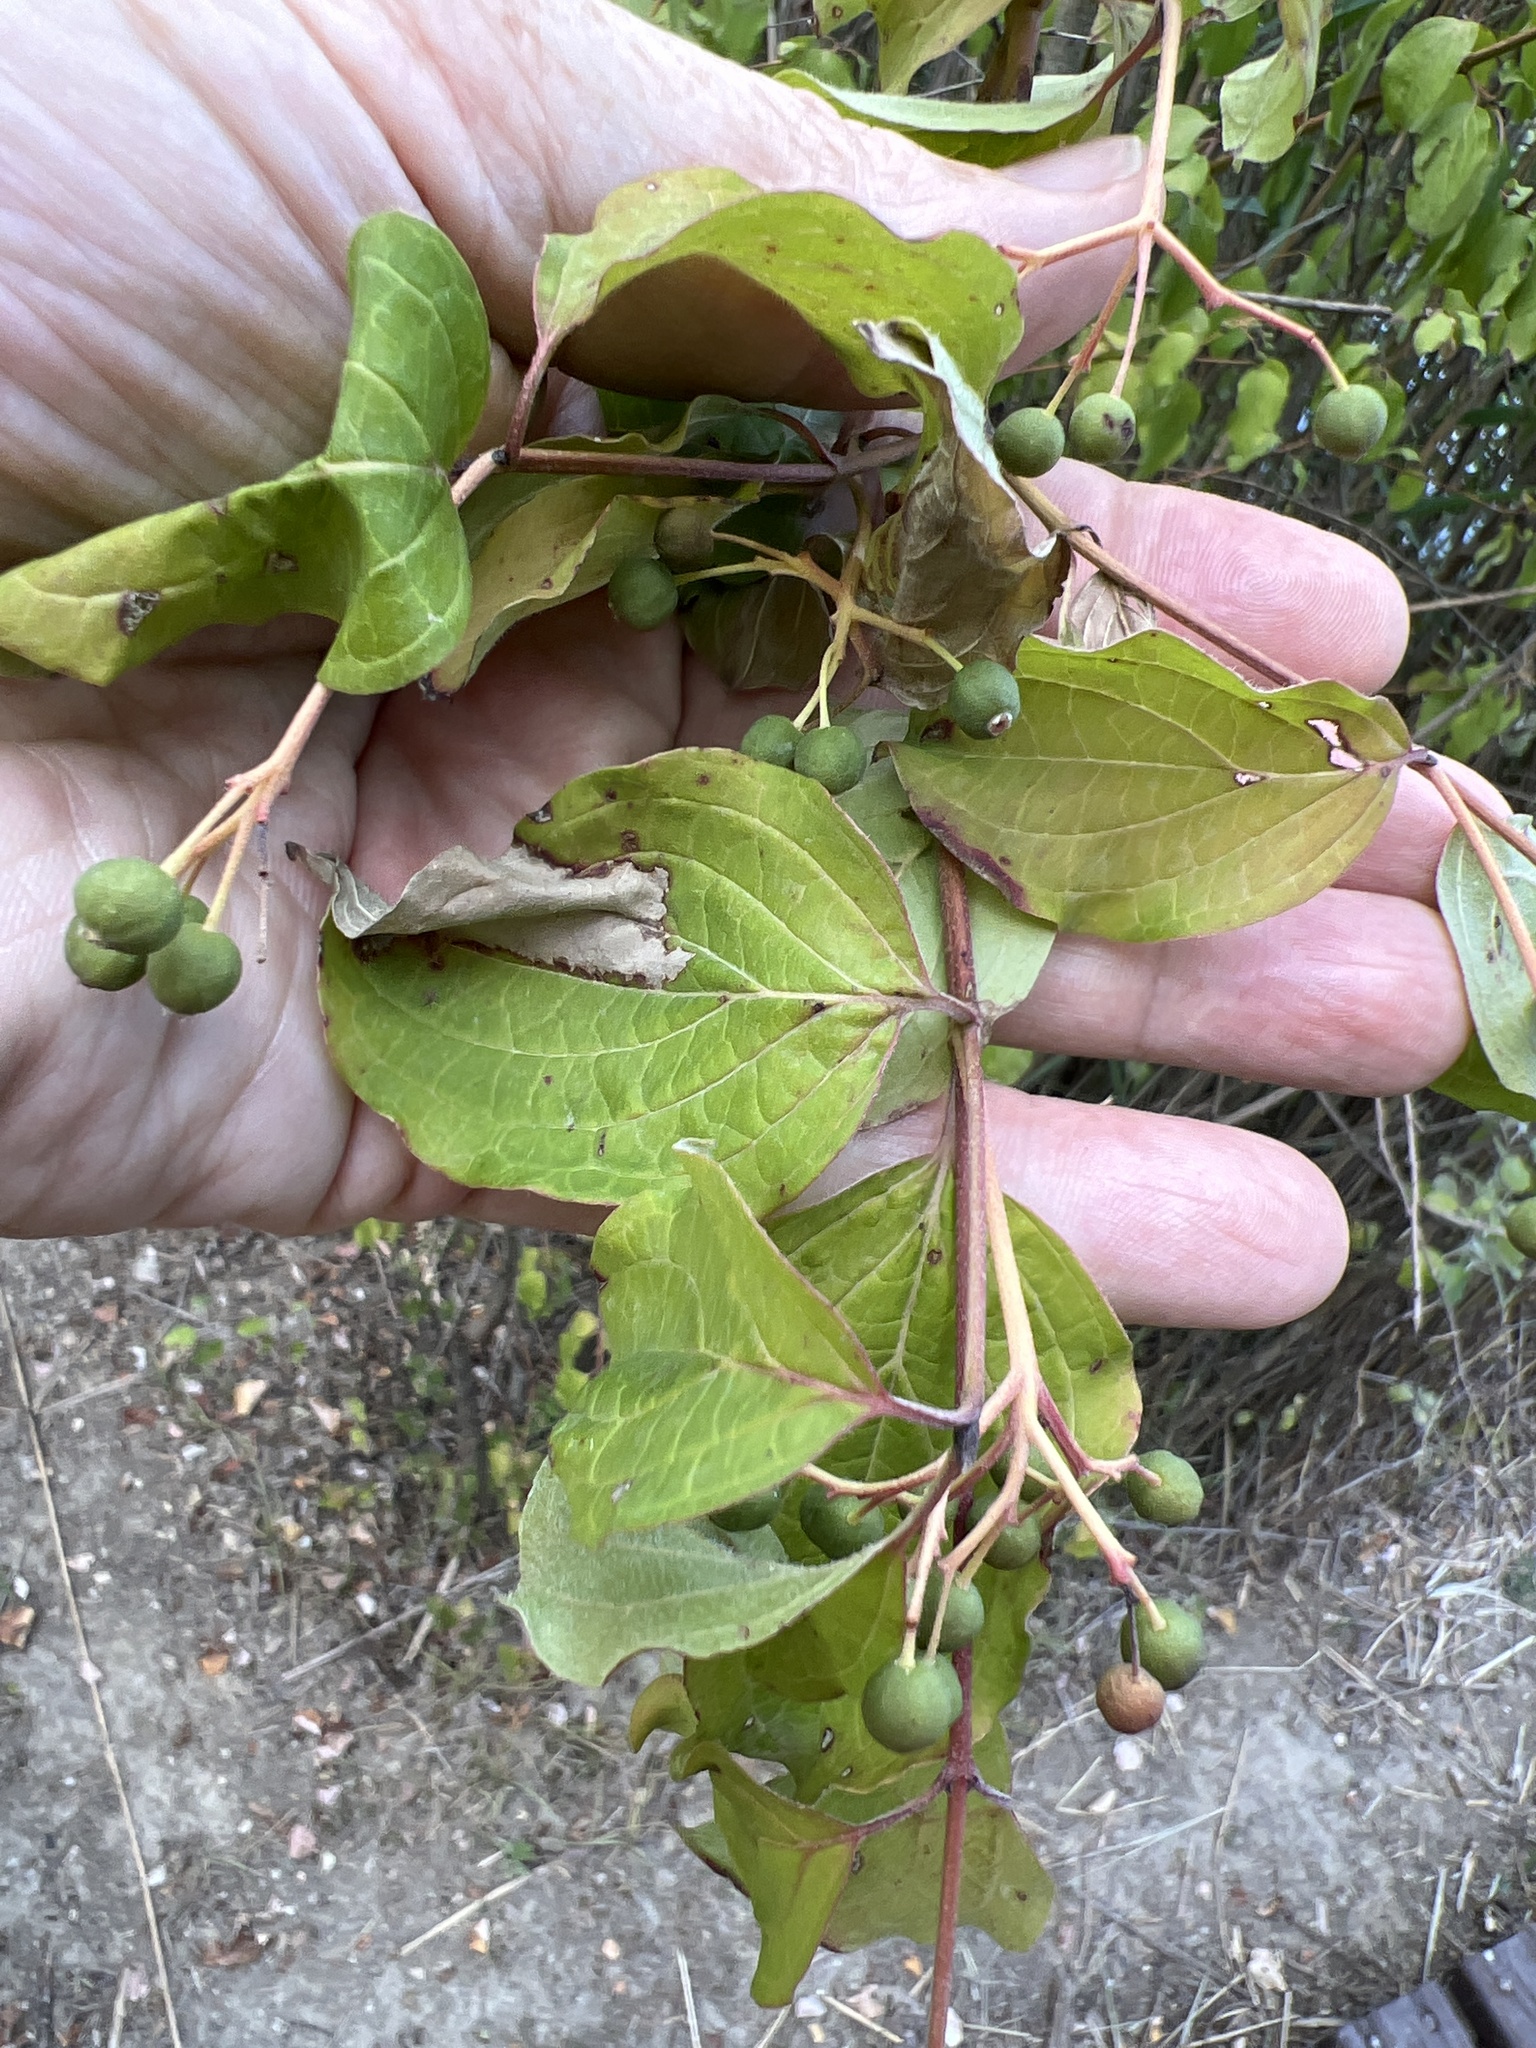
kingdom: Plantae
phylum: Tracheophyta
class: Magnoliopsida
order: Cornales
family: Cornaceae
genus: Cornus
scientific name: Cornus sanguinea
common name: Dogwood
